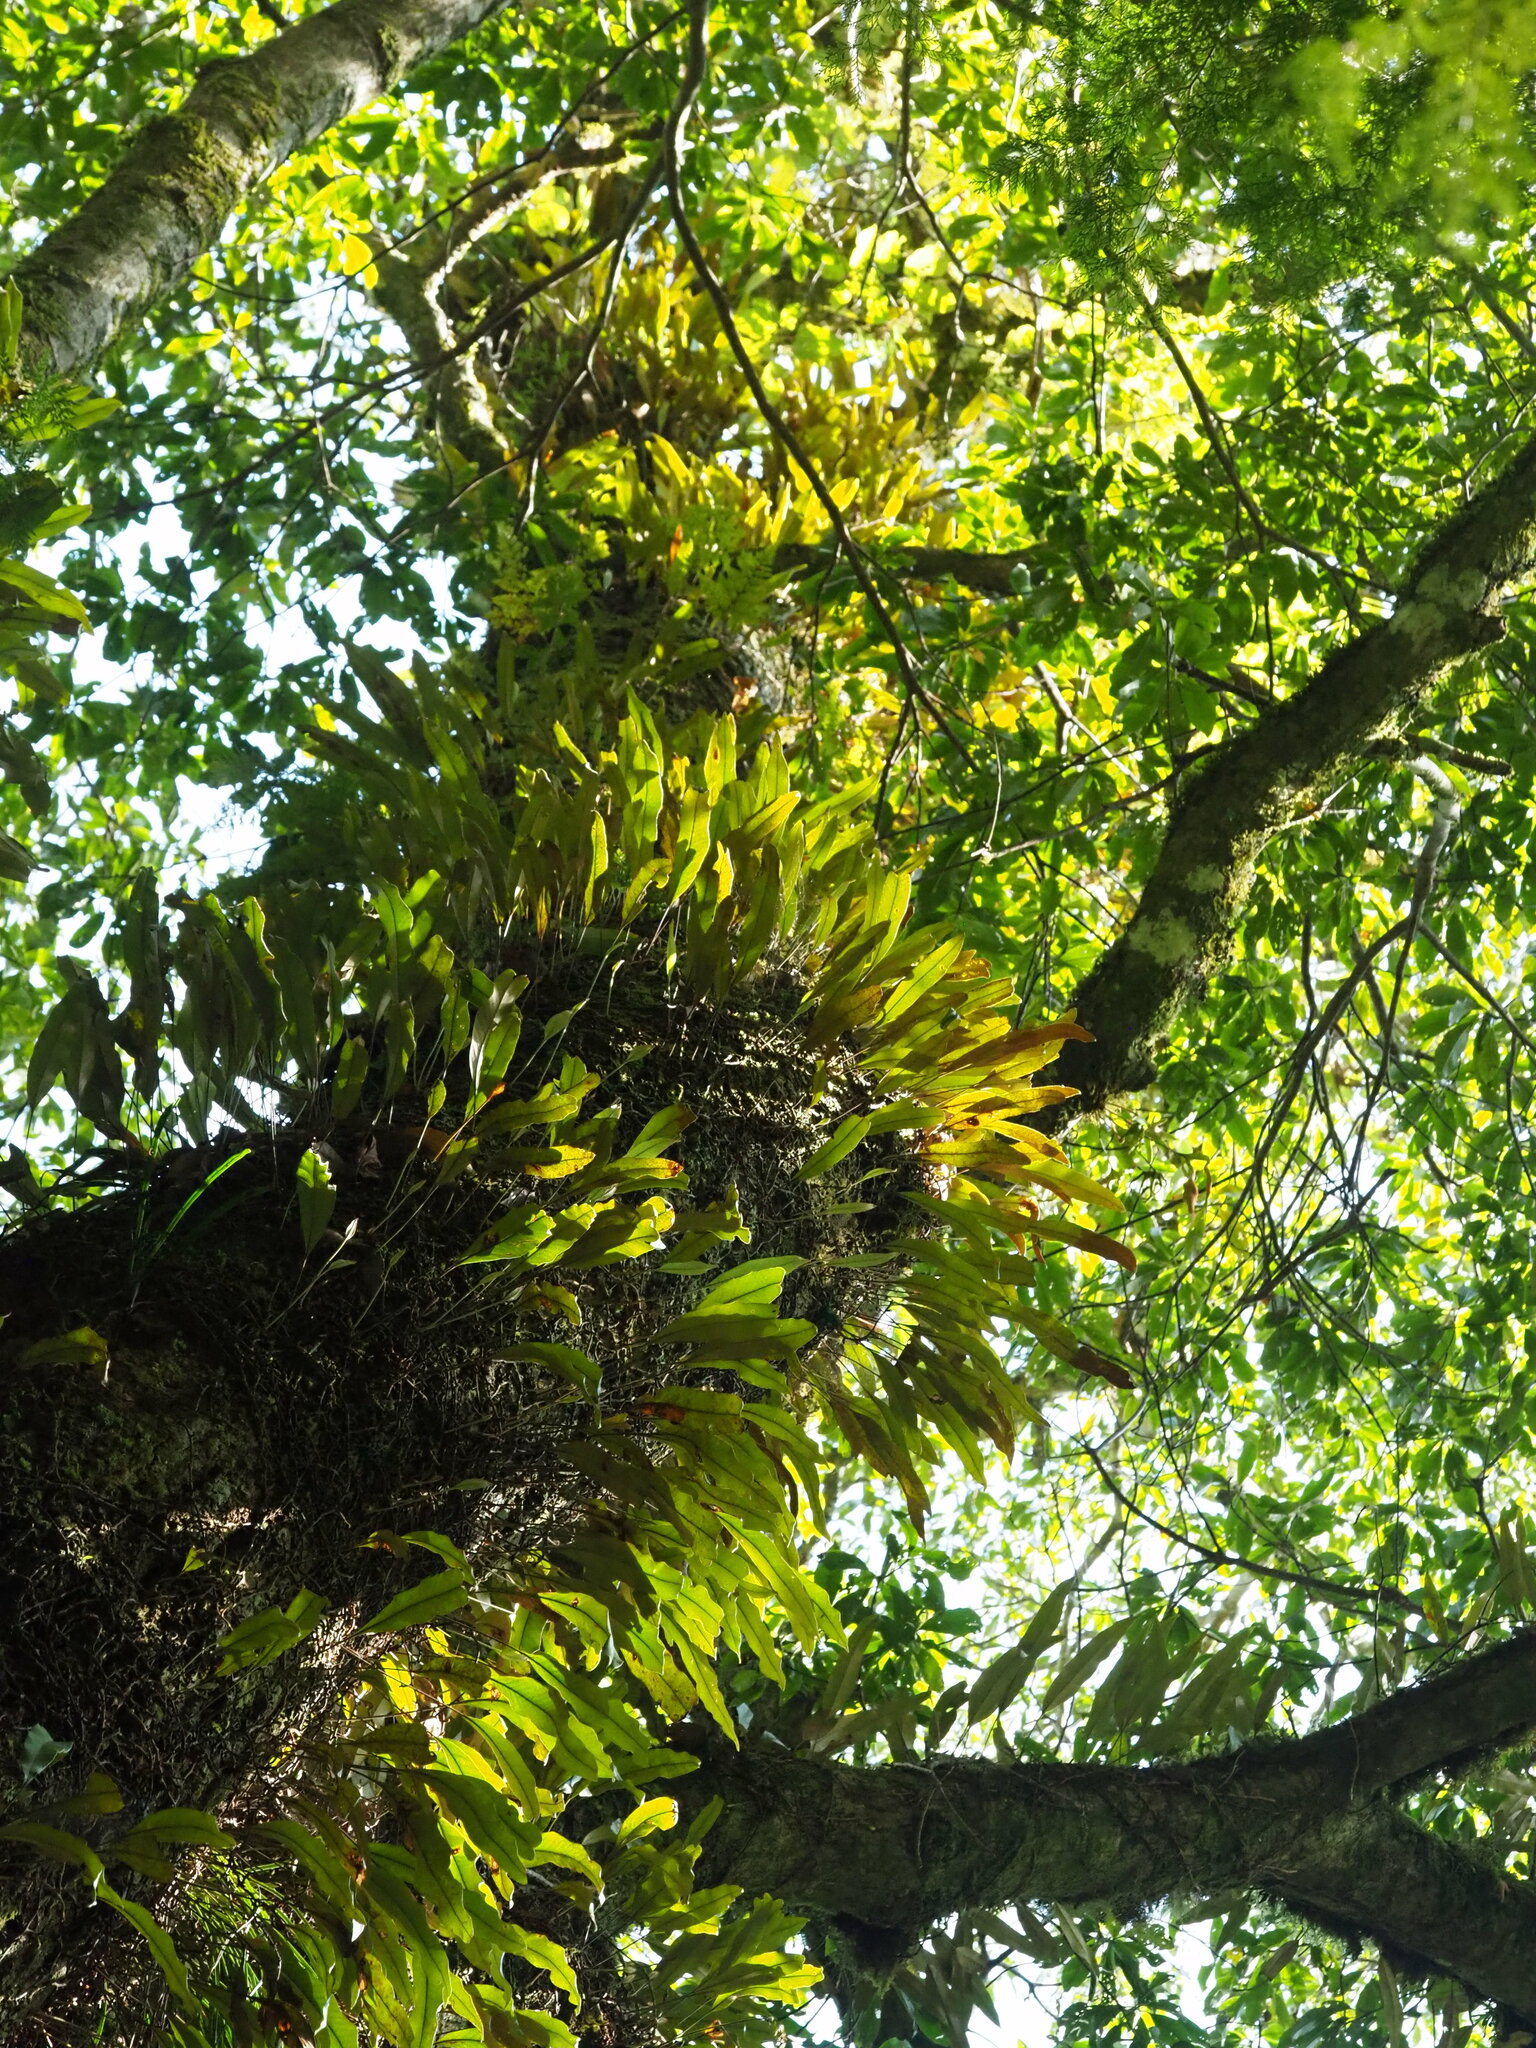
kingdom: Plantae
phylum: Tracheophyta
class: Polypodiopsida
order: Polypodiales
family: Polypodiaceae
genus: Pyrrosia
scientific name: Pyrrosia lingua
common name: Felt fern
